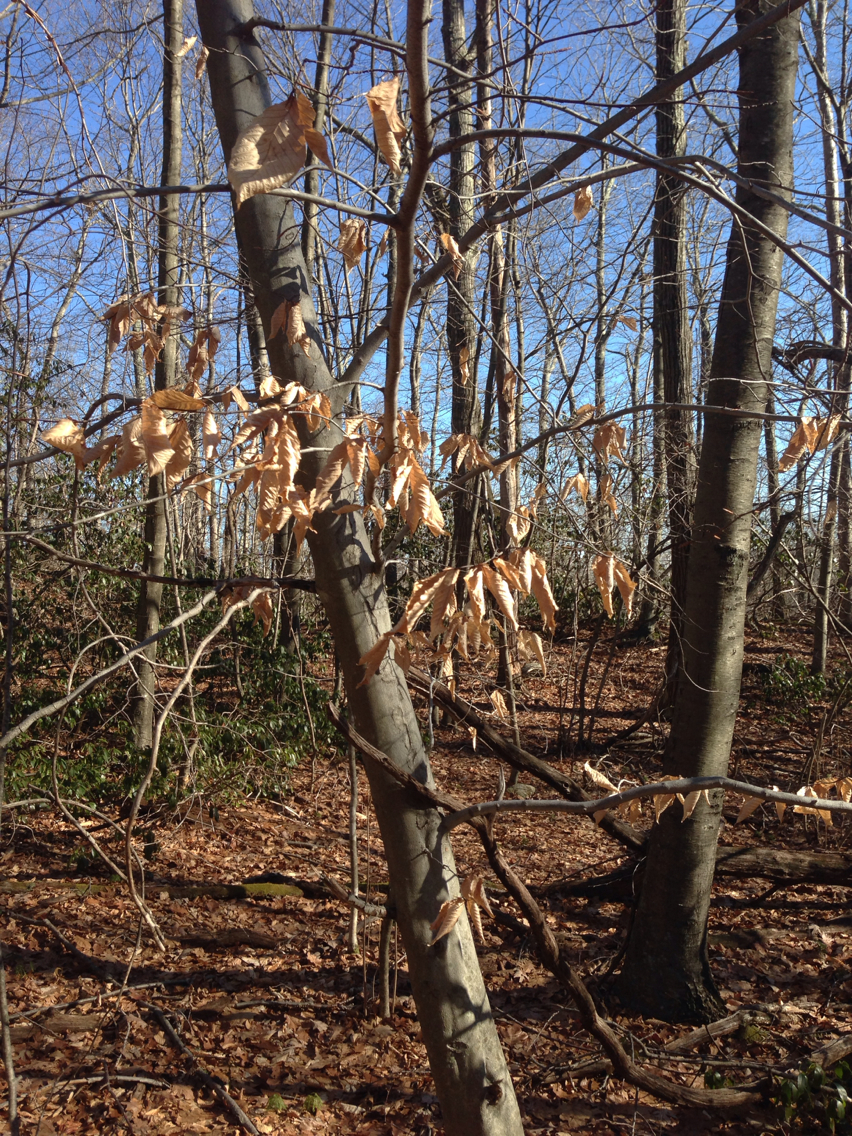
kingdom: Plantae
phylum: Tracheophyta
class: Magnoliopsida
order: Fagales
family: Fagaceae
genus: Fagus
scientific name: Fagus grandifolia
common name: American beech
